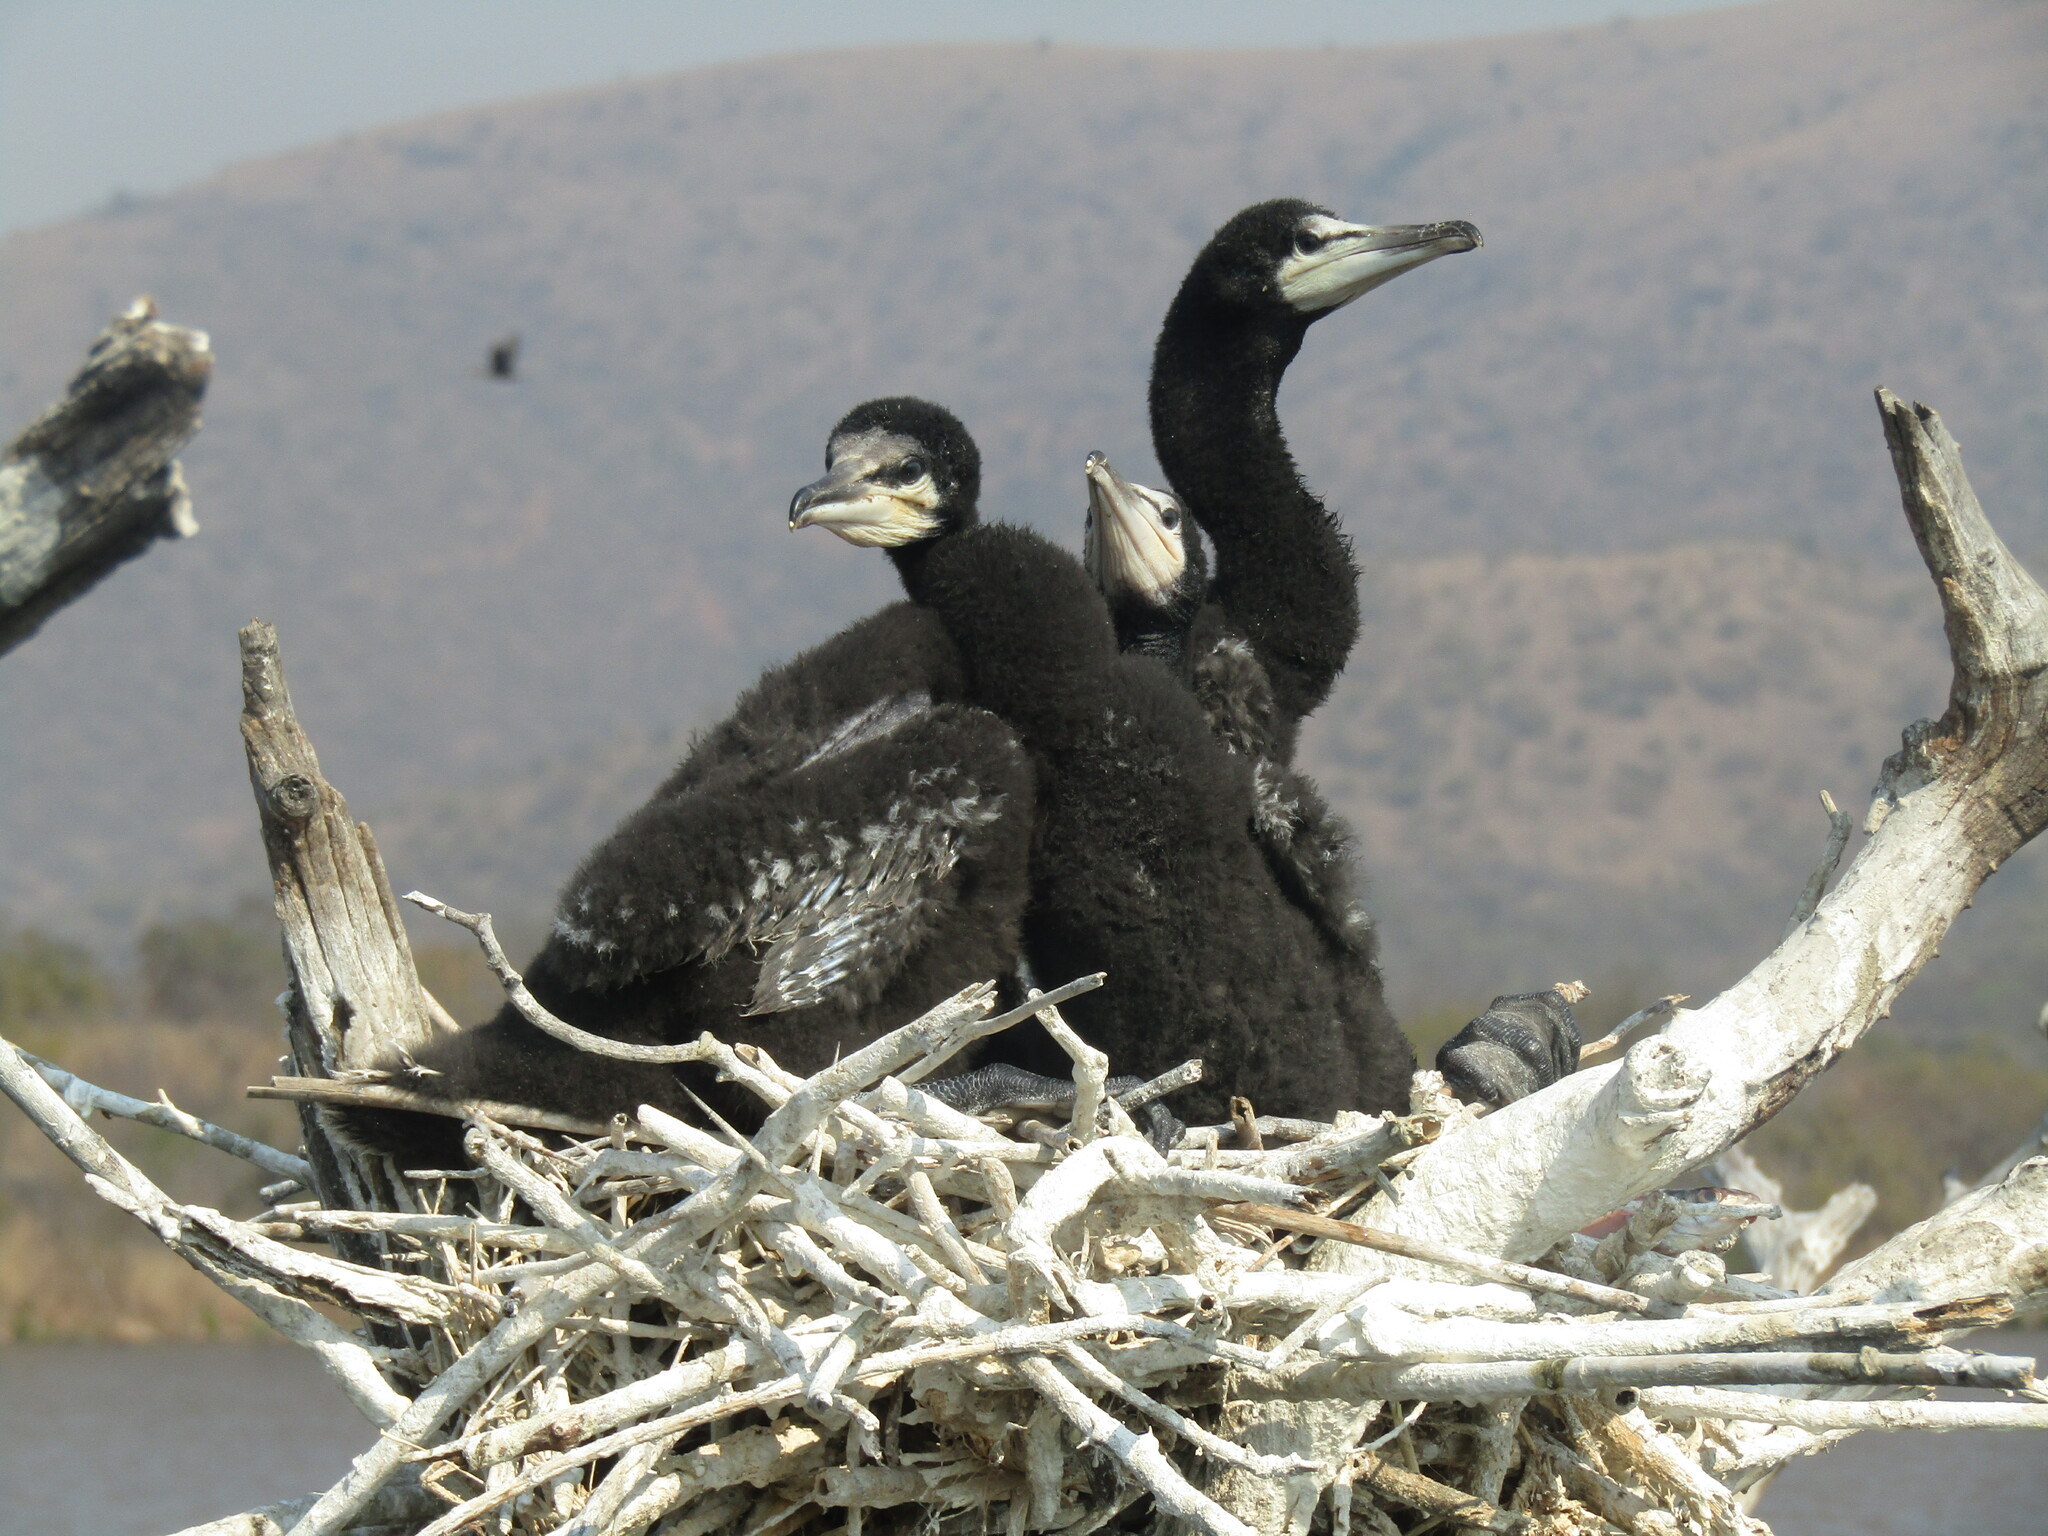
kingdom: Animalia
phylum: Chordata
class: Aves
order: Suliformes
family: Phalacrocoracidae
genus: Phalacrocorax
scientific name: Phalacrocorax carbo
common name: Great cormorant
